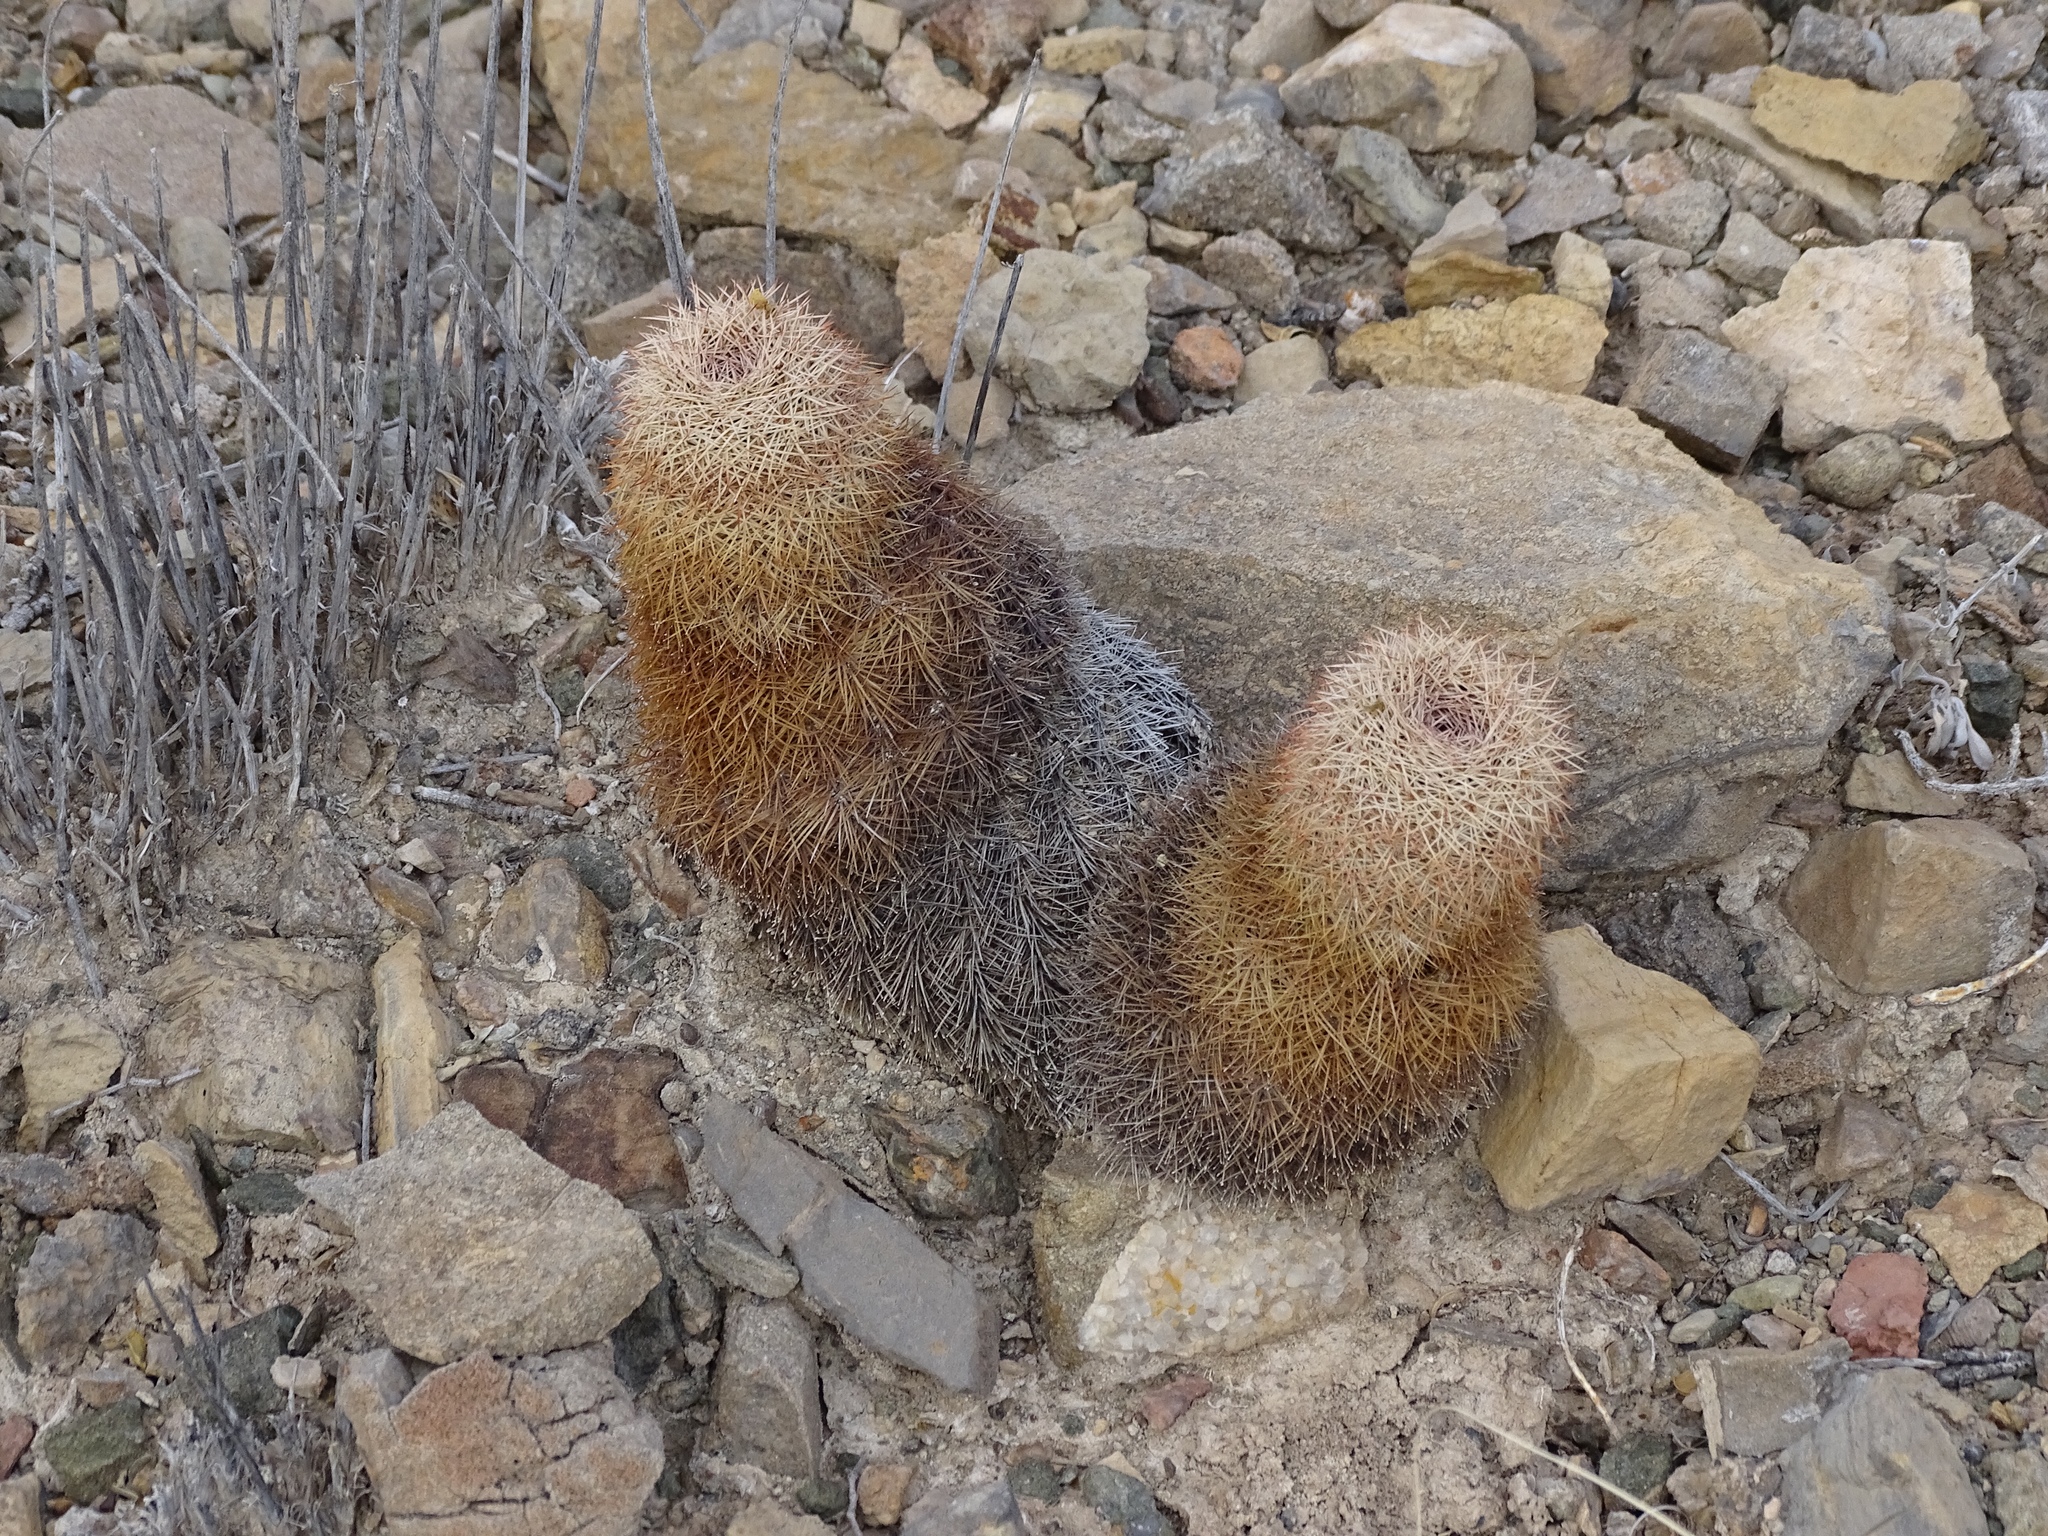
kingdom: Plantae
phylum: Tracheophyta
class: Magnoliopsida
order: Caryophyllales
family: Cactaceae
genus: Echinocereus
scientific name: Echinocereus dasyacanthus
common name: Spiny hedgehog cactus
